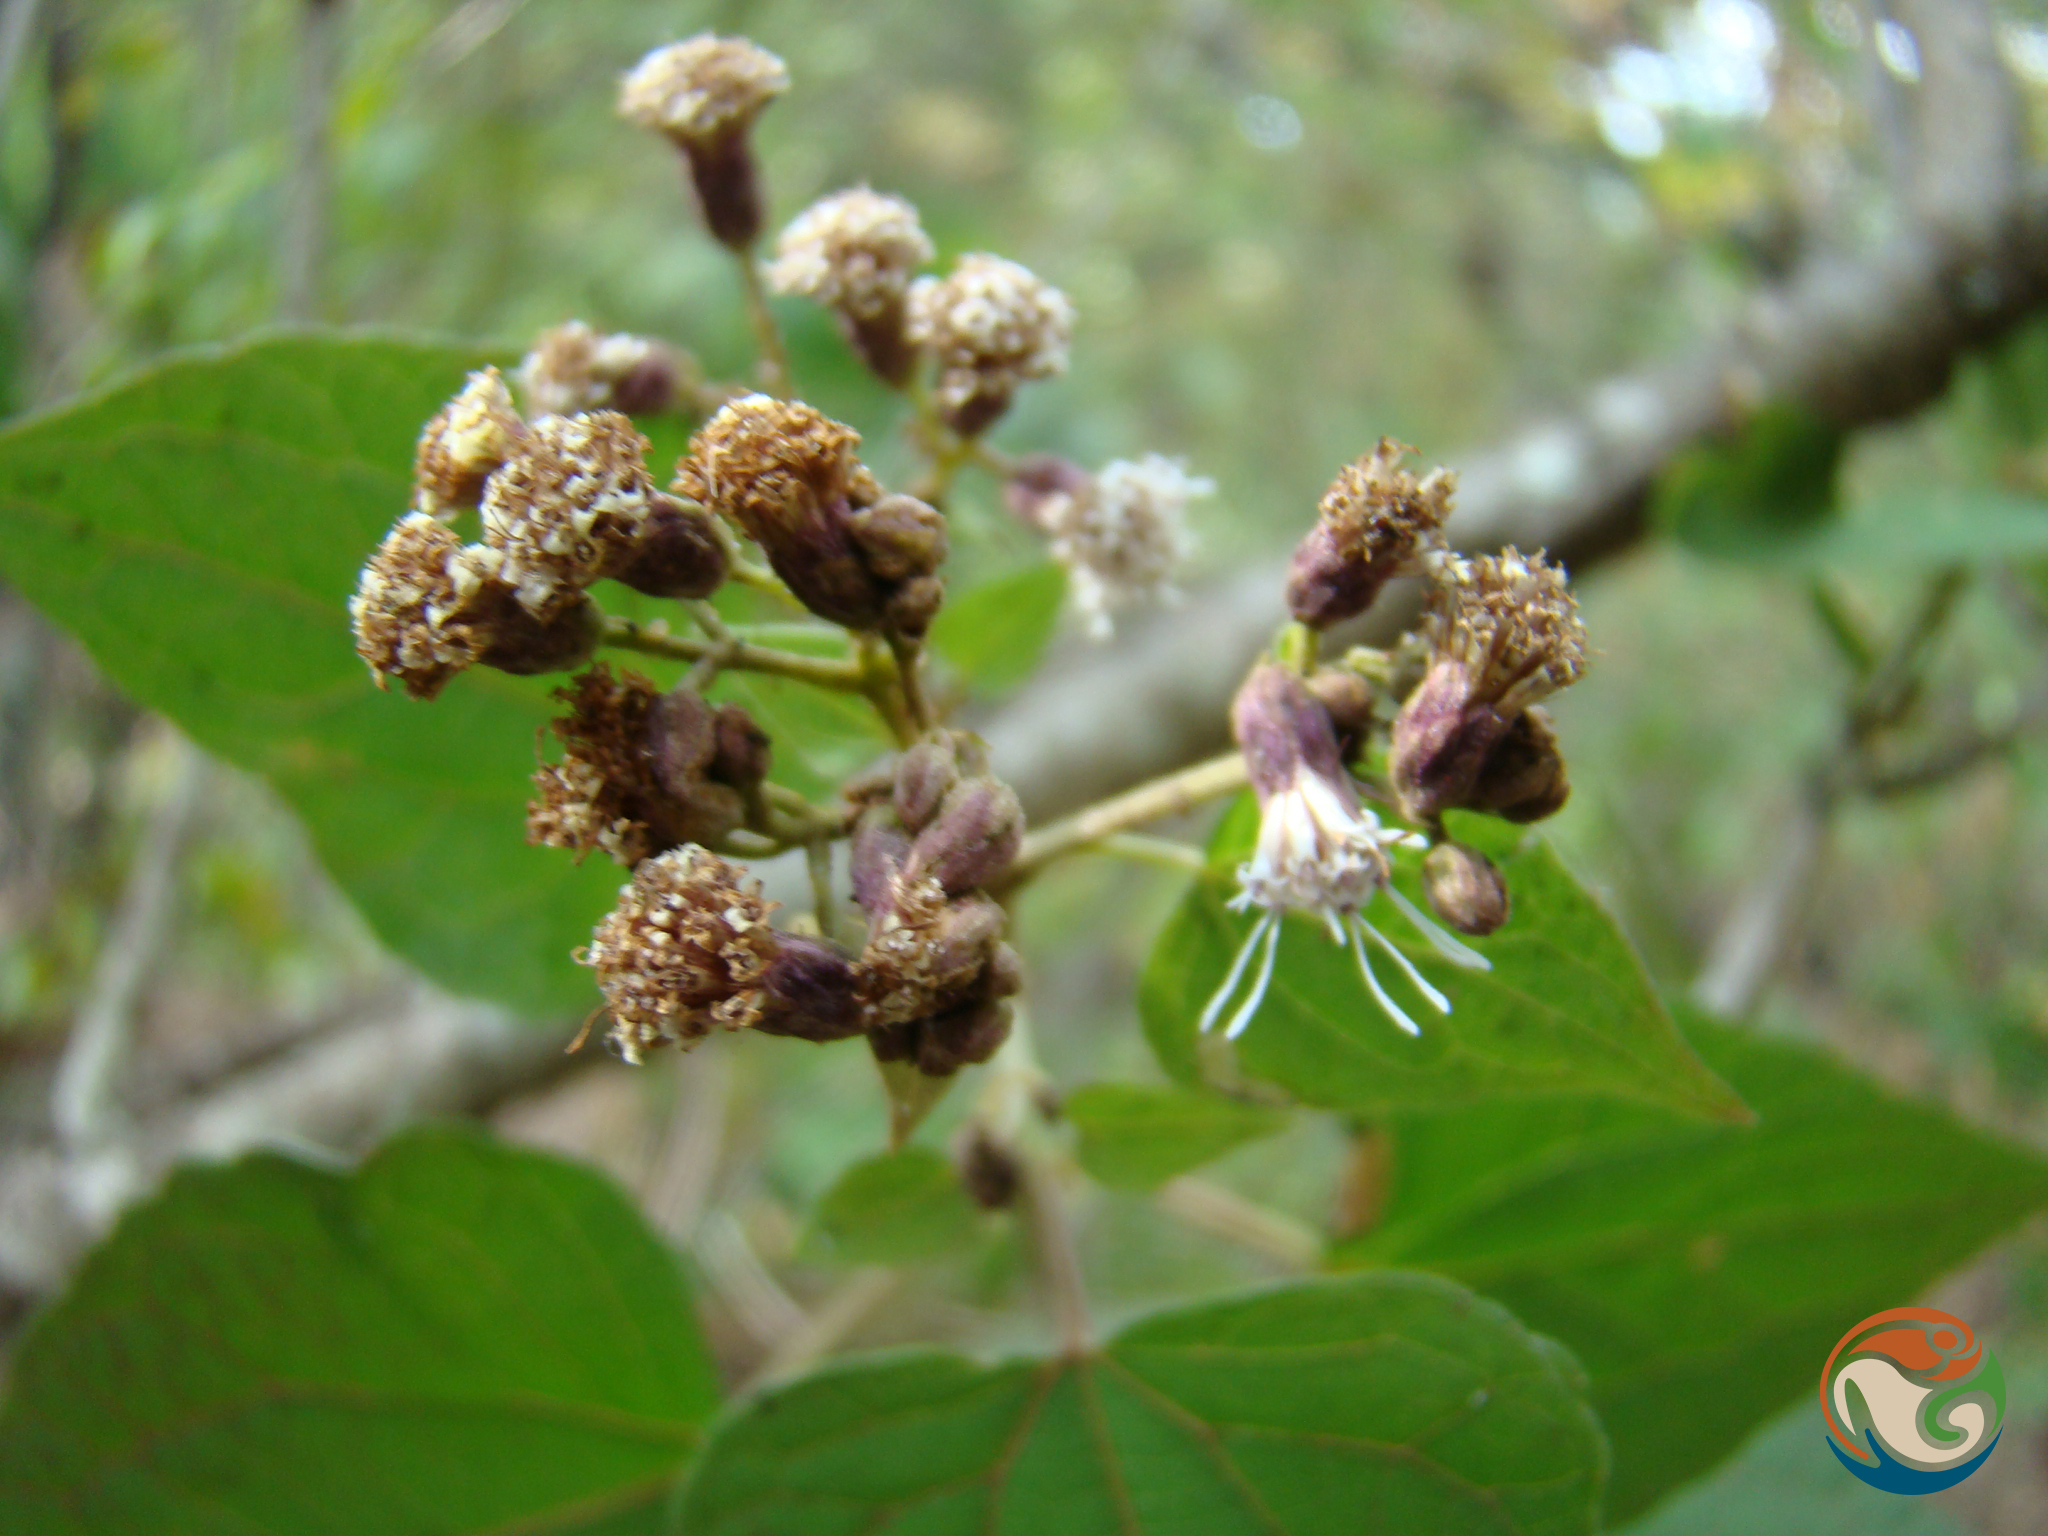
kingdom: Plantae
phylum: Tracheophyta
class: Magnoliopsida
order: Asterales
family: Asteraceae
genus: Ageratina
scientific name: Ageratina petiolaris
